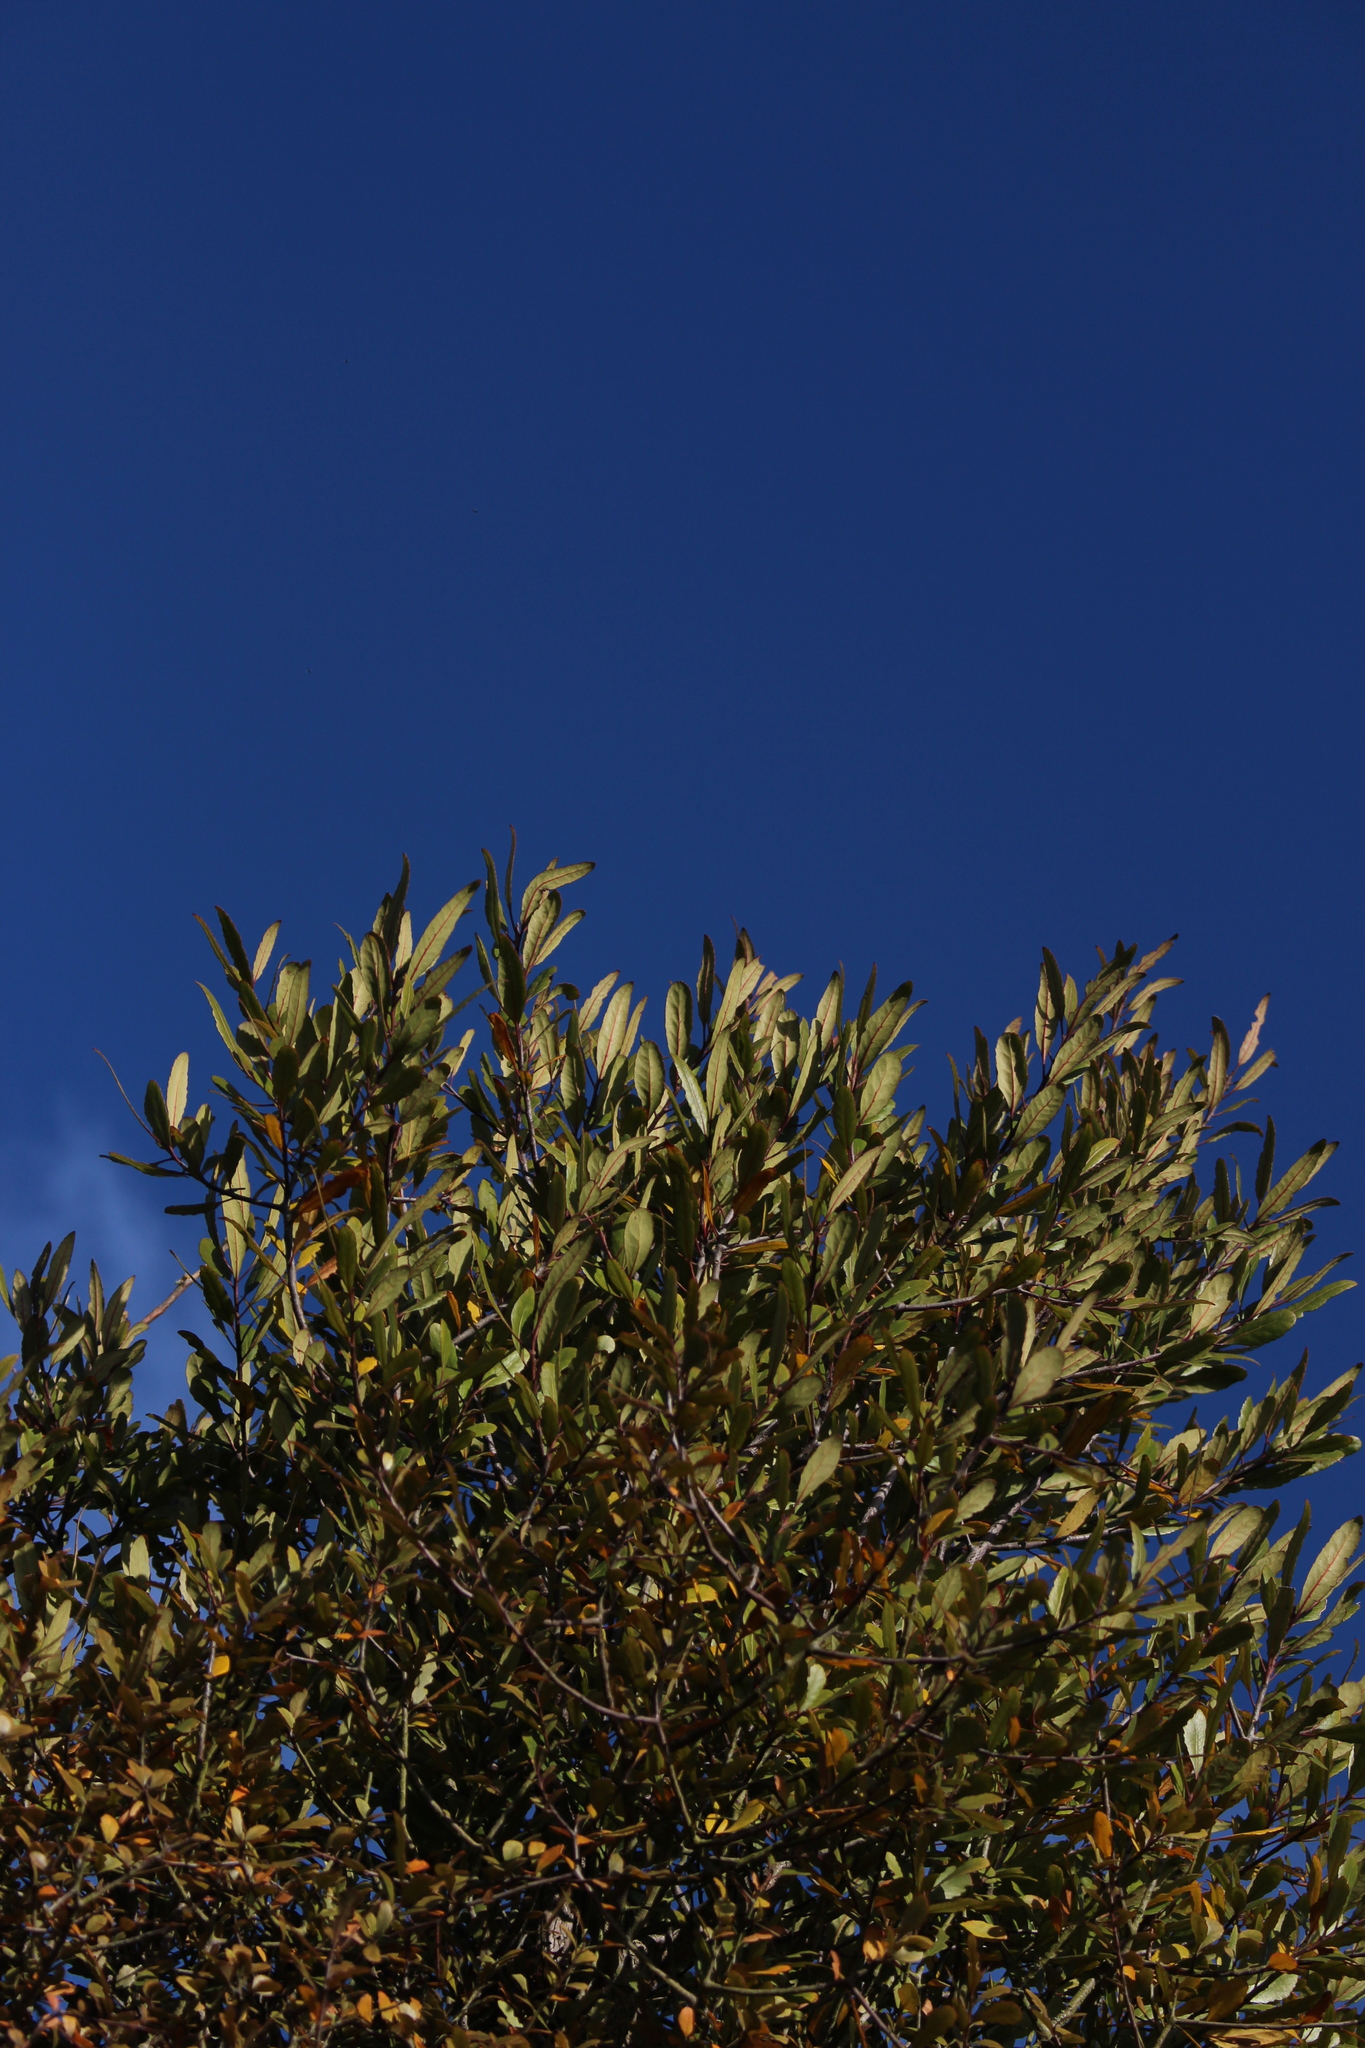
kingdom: Plantae
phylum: Tracheophyta
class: Magnoliopsida
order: Oxalidales
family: Elaeocarpaceae
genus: Elaeocarpus
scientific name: Elaeocarpus hookerianus
